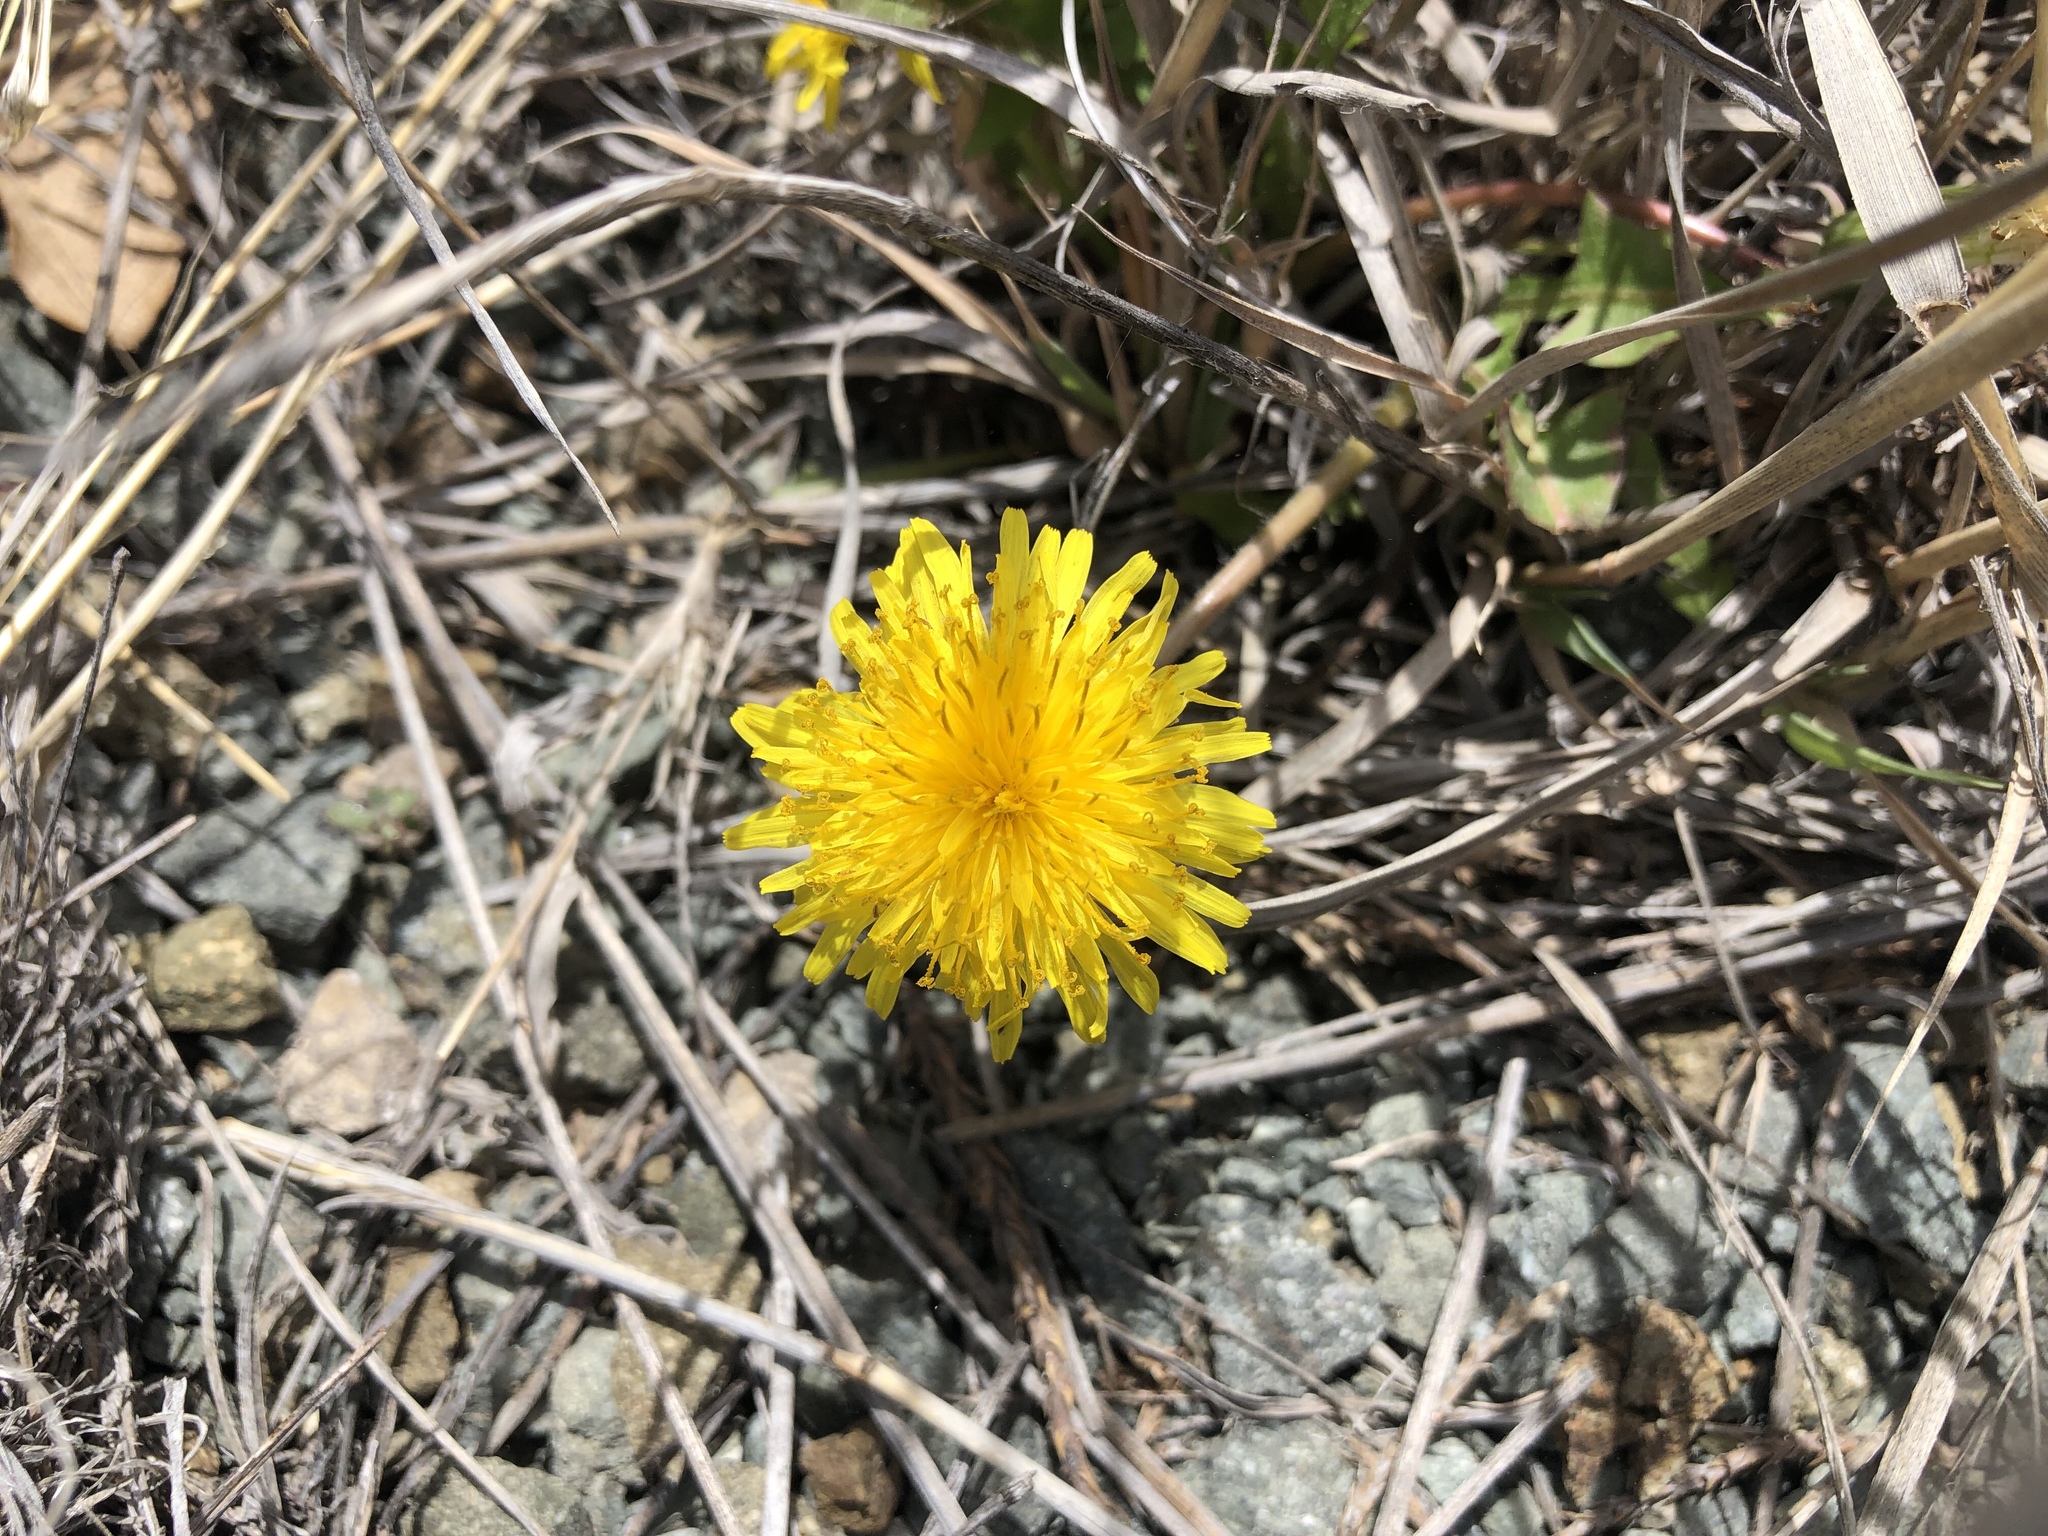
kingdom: Plantae
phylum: Tracheophyta
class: Magnoliopsida
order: Asterales
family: Asteraceae
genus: Taraxacum
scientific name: Taraxacum officinale
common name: Common dandelion
